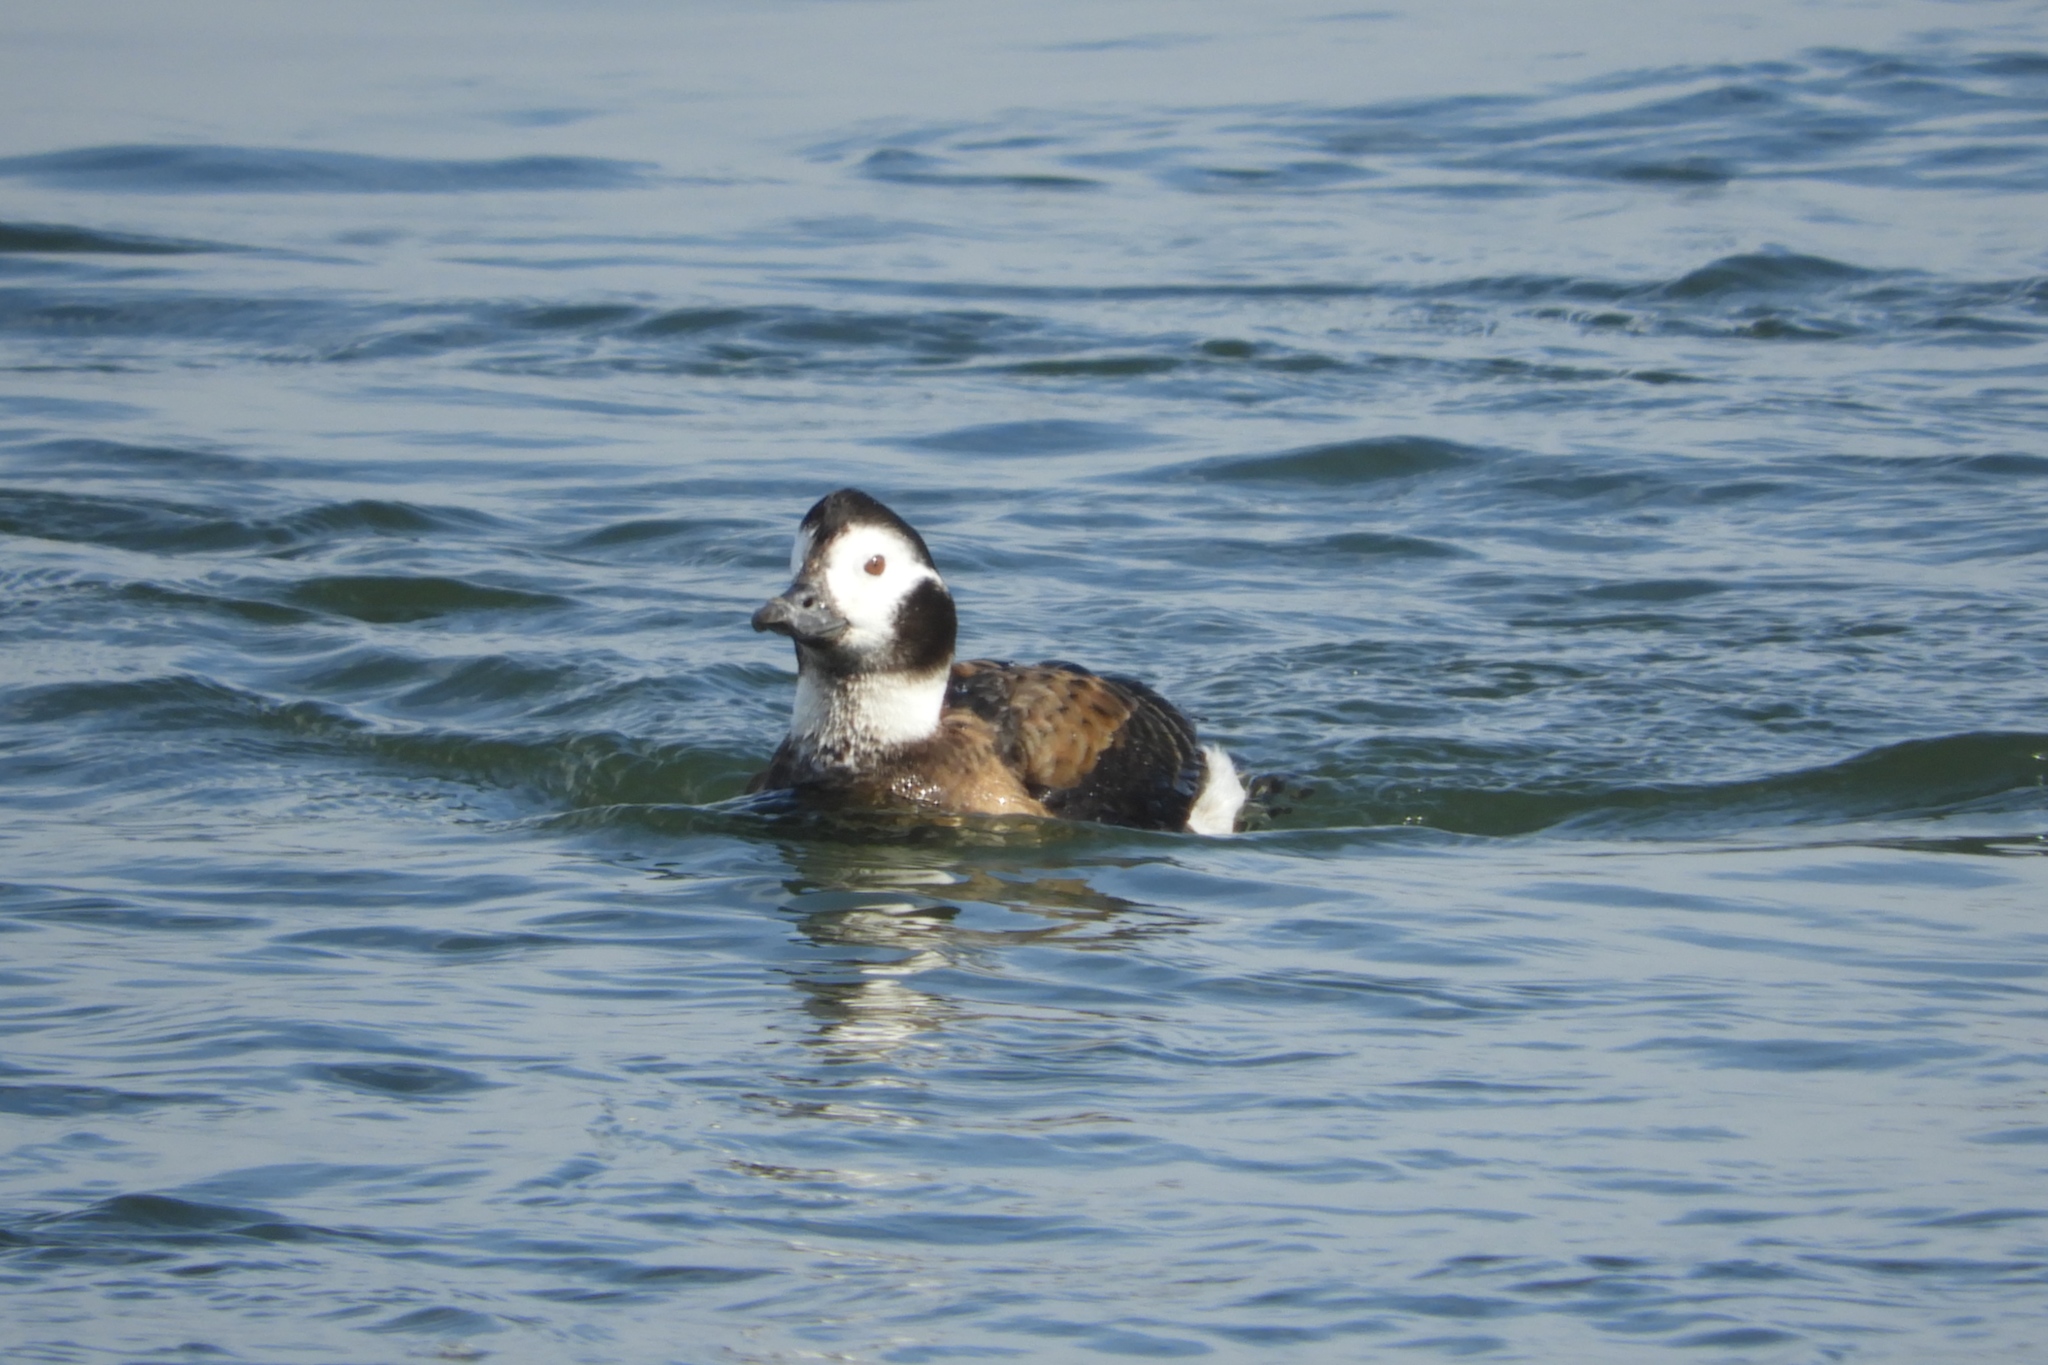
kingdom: Animalia
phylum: Chordata
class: Aves
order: Anseriformes
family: Anatidae
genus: Clangula
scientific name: Clangula hyemalis
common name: Long-tailed duck
